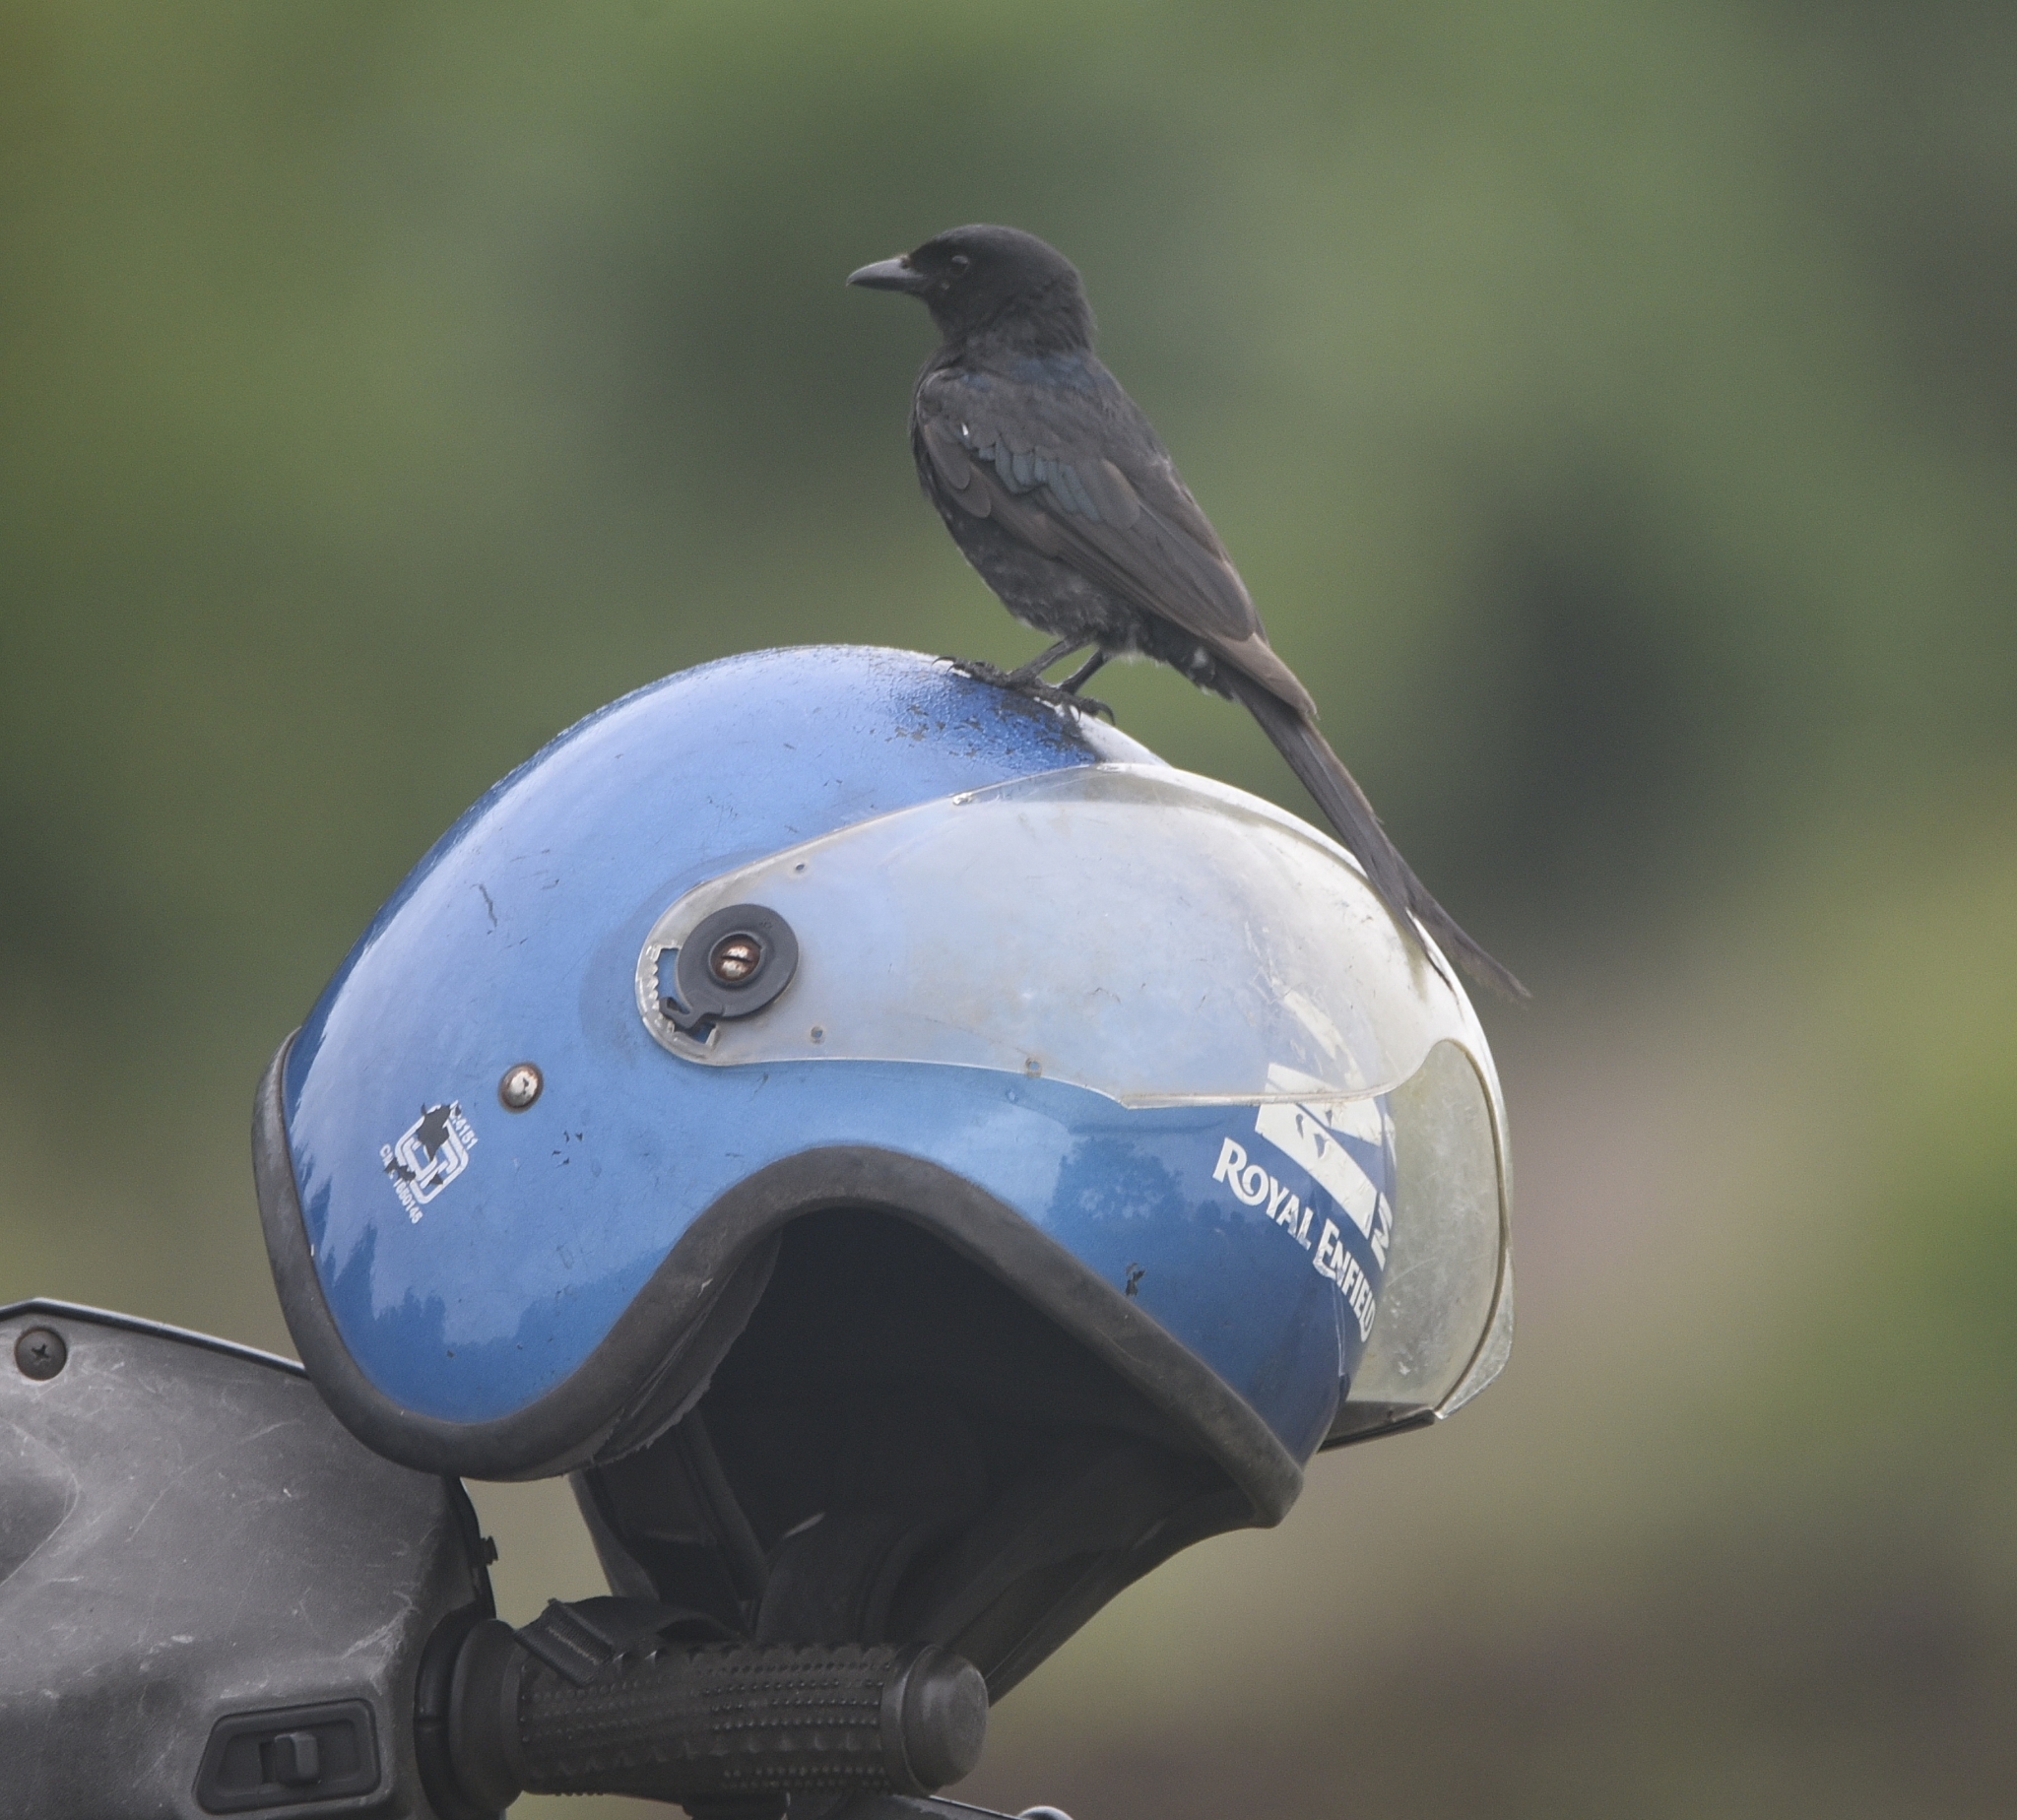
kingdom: Animalia
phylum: Chordata
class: Aves
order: Passeriformes
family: Dicruridae
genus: Dicrurus
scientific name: Dicrurus macrocercus
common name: Black drongo
